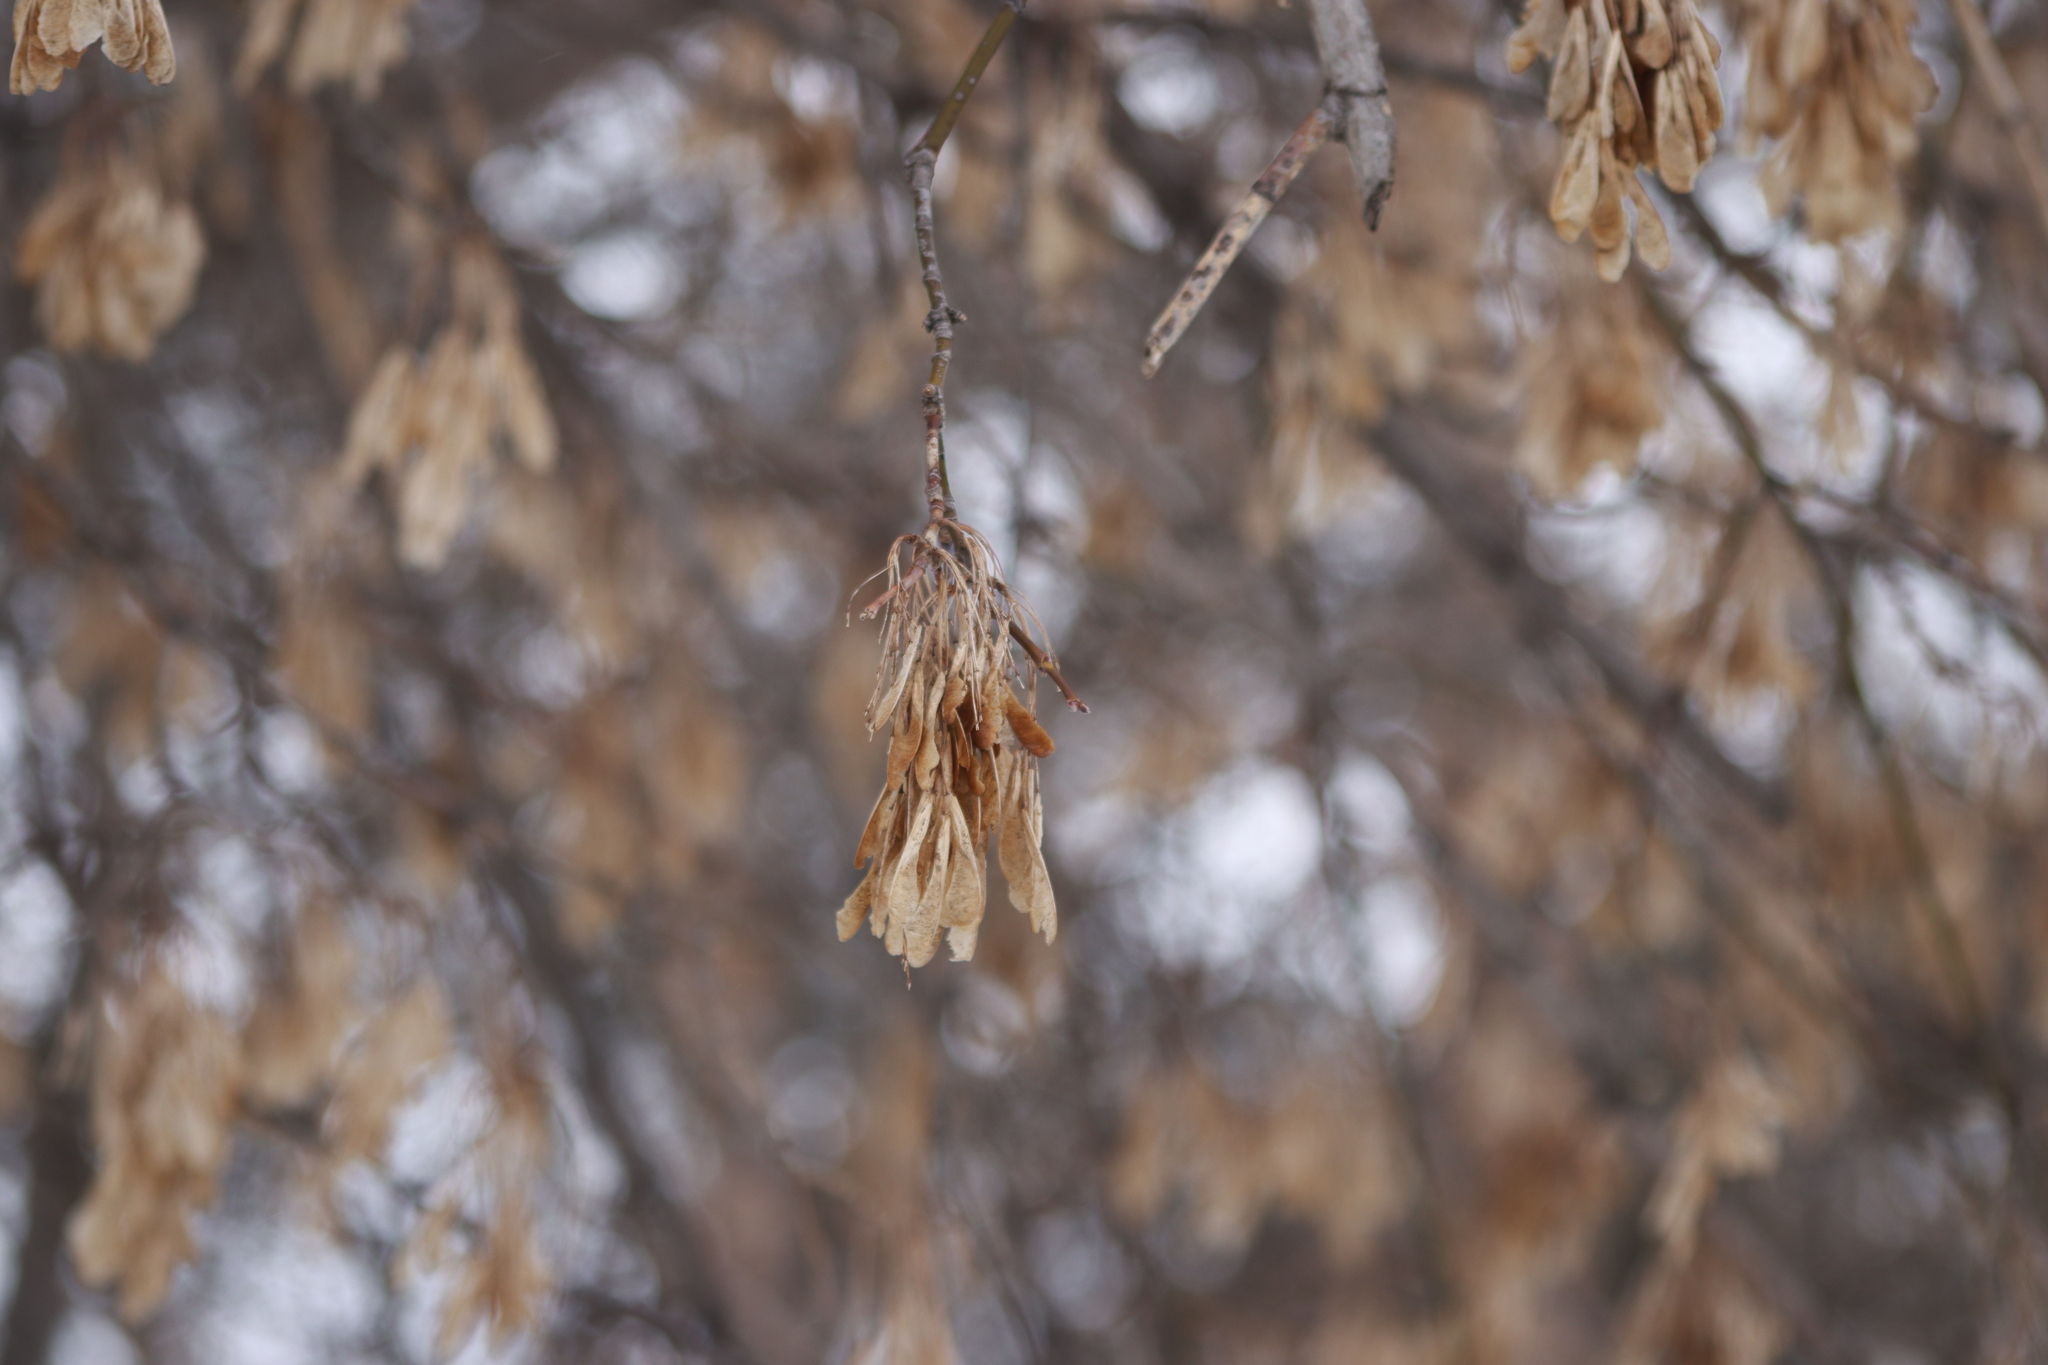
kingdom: Plantae
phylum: Tracheophyta
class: Magnoliopsida
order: Sapindales
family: Sapindaceae
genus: Acer
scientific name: Acer negundo
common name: Ashleaf maple
